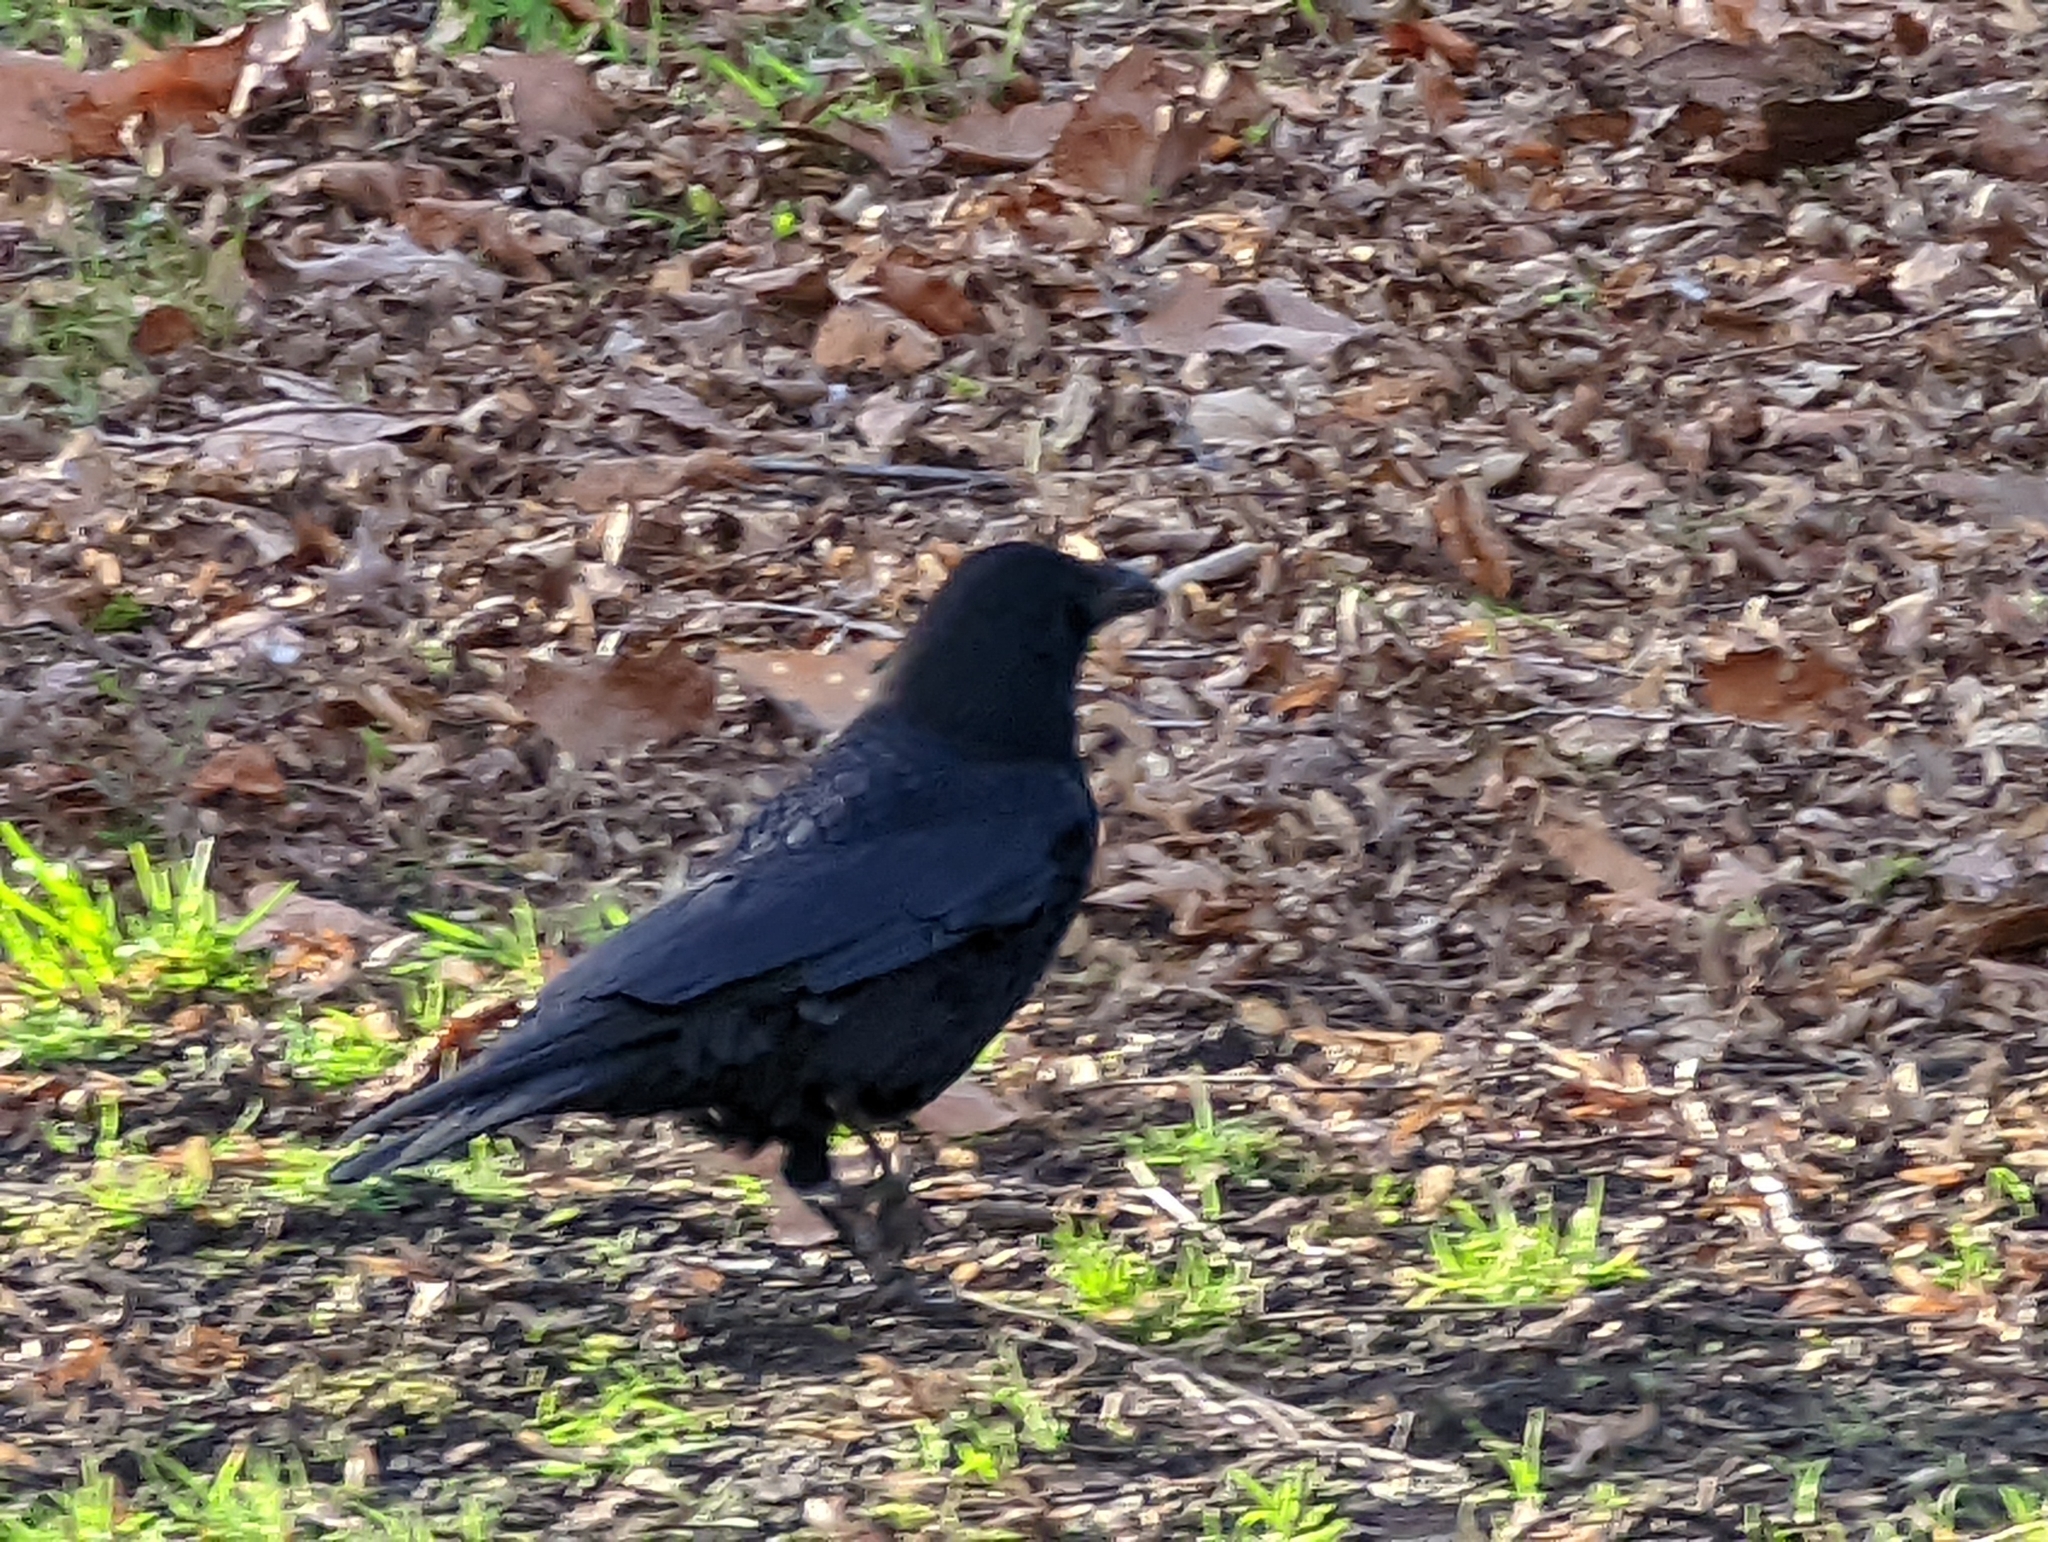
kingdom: Animalia
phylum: Chordata
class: Aves
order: Passeriformes
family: Corvidae
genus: Corvus
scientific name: Corvus corone
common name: Carrion crow
